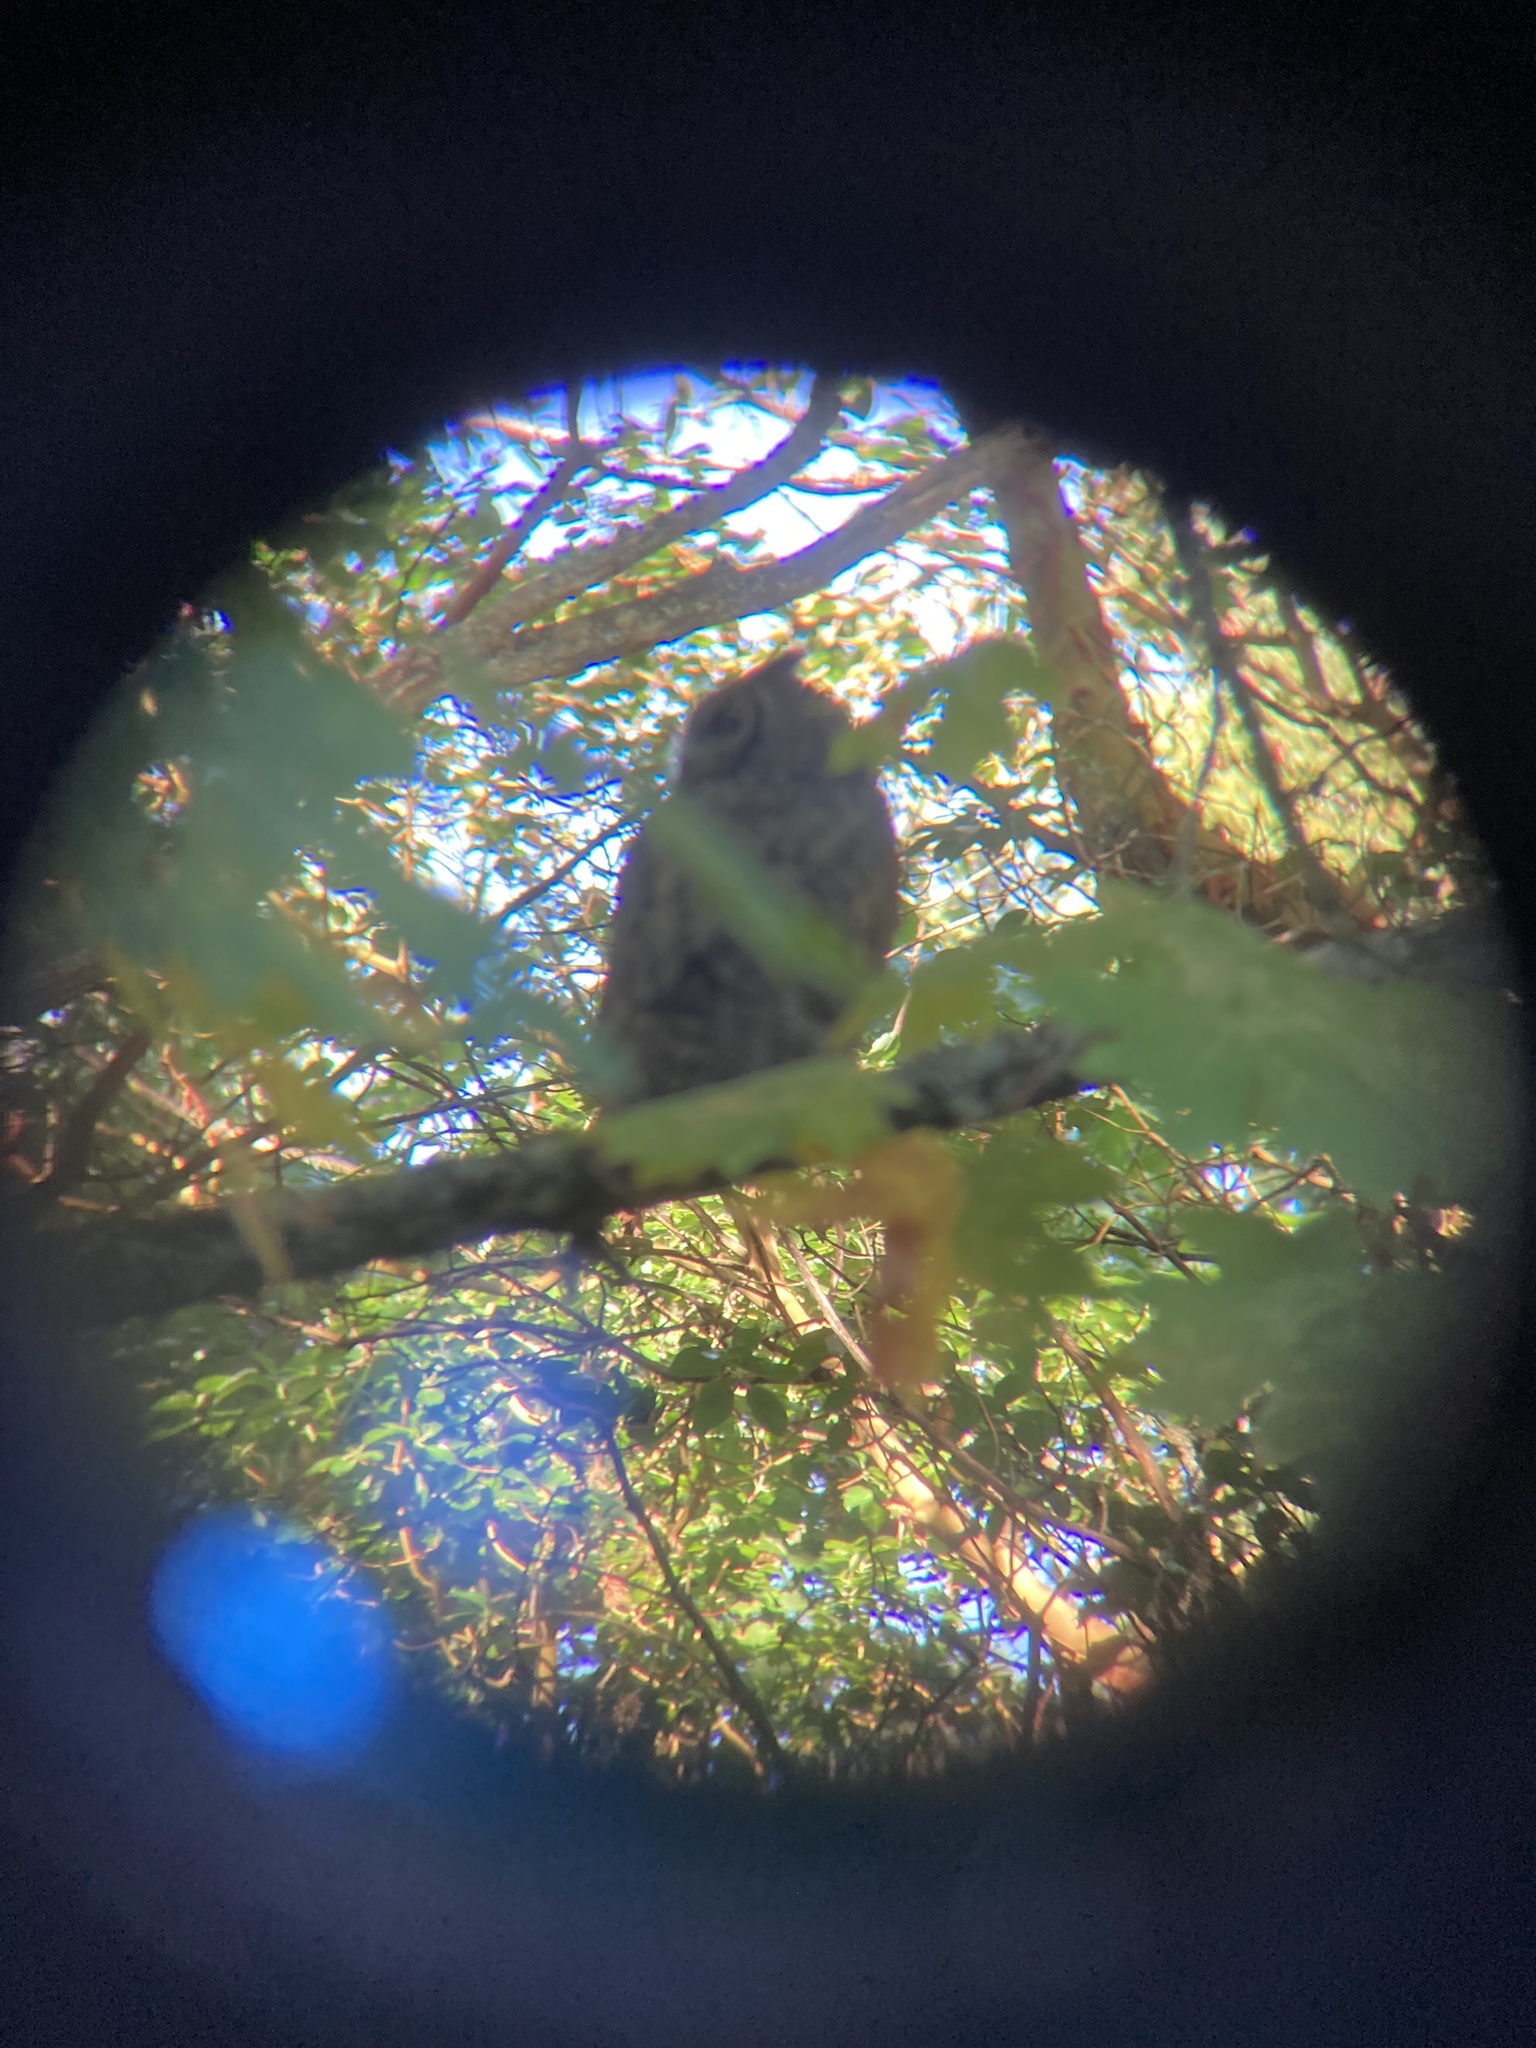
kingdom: Animalia
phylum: Chordata
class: Aves
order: Strigiformes
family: Strigidae
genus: Bubo
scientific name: Bubo virginianus
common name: Great horned owl
